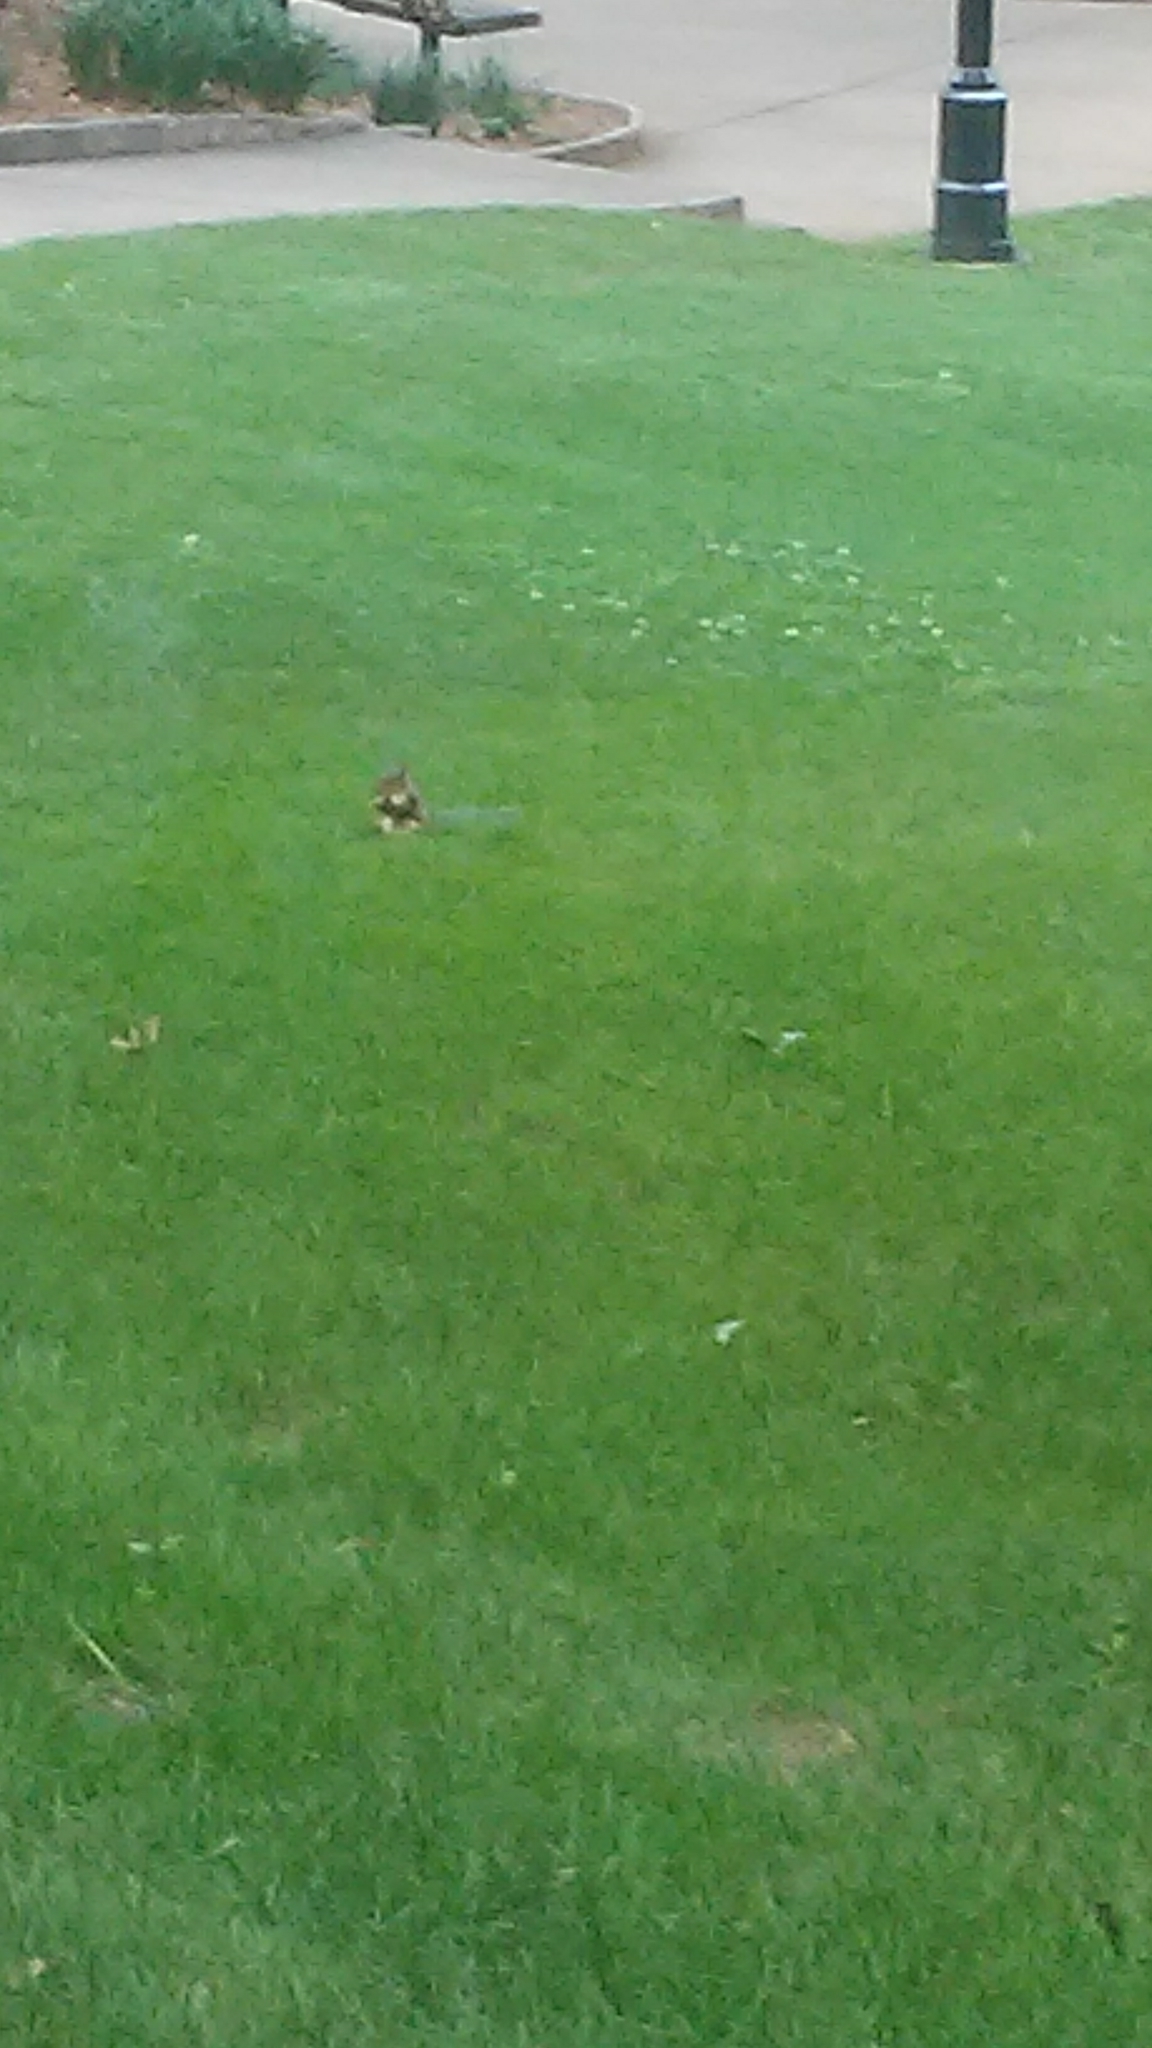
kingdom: Animalia
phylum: Chordata
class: Mammalia
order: Rodentia
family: Sciuridae
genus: Sciurus
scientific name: Sciurus carolinensis
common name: Eastern gray squirrel
